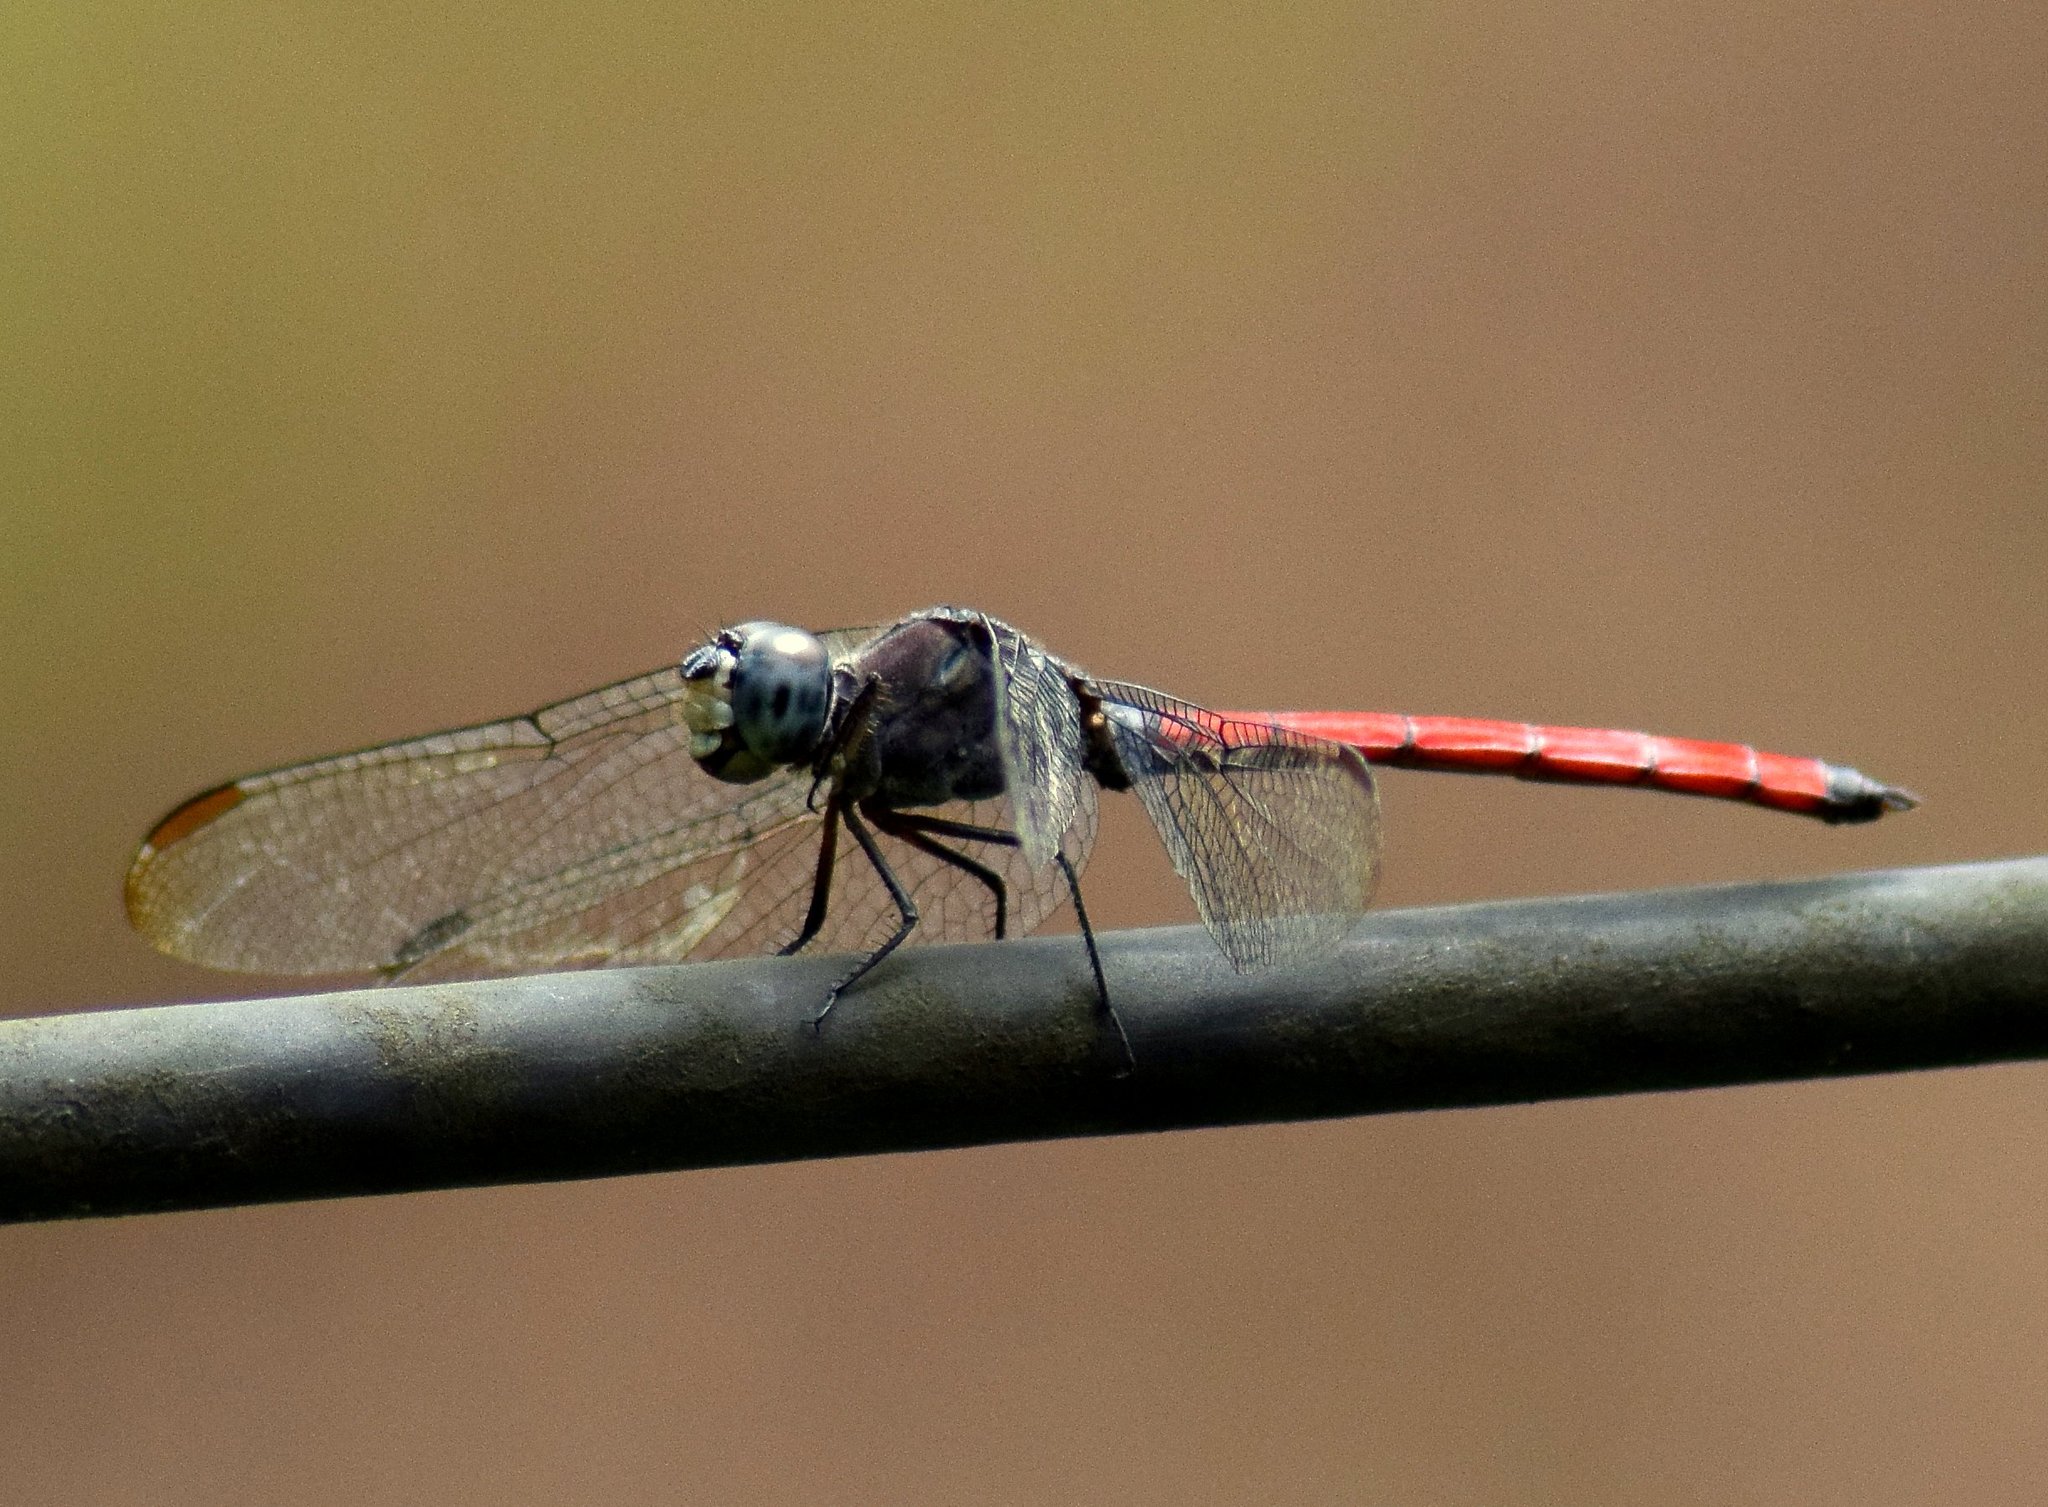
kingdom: Animalia
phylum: Arthropoda
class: Insecta
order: Odonata
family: Libellulidae
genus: Lathrecista
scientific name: Lathrecista asiatica
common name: Scarlet grenadier
